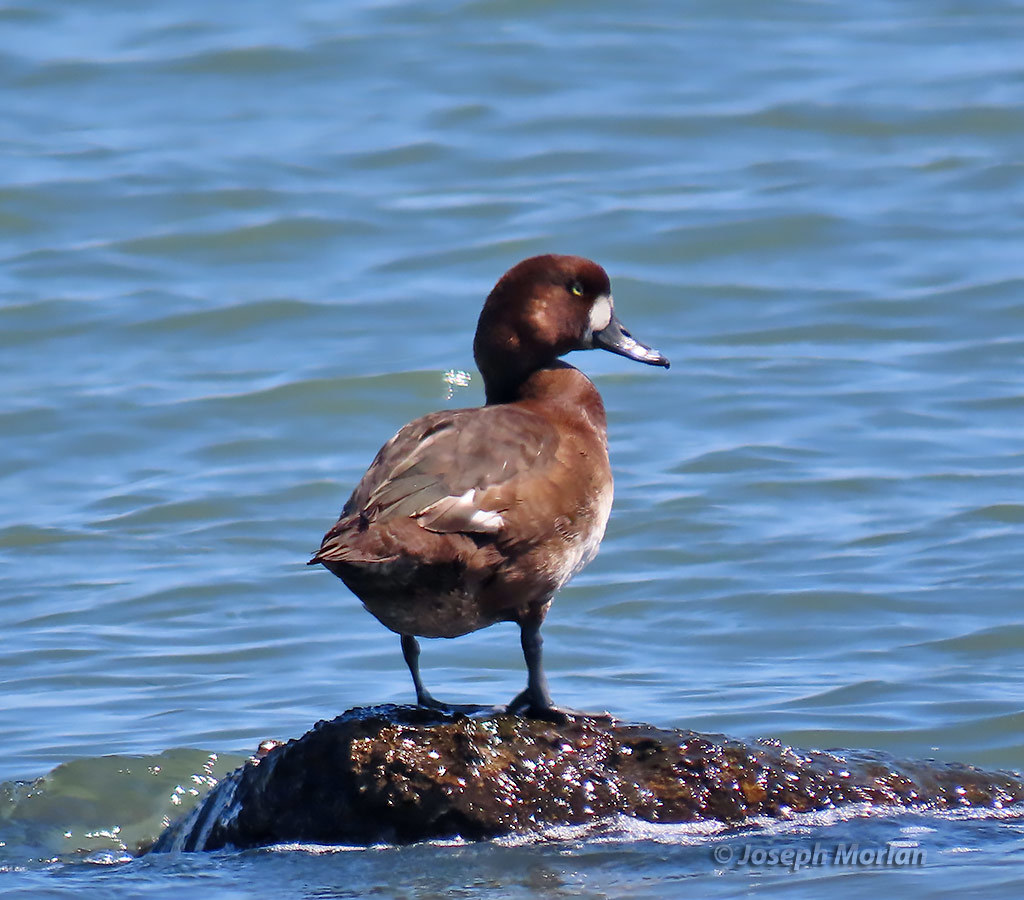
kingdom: Animalia
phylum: Chordata
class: Aves
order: Anseriformes
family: Anatidae
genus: Aythya
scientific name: Aythya marila
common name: Greater scaup
